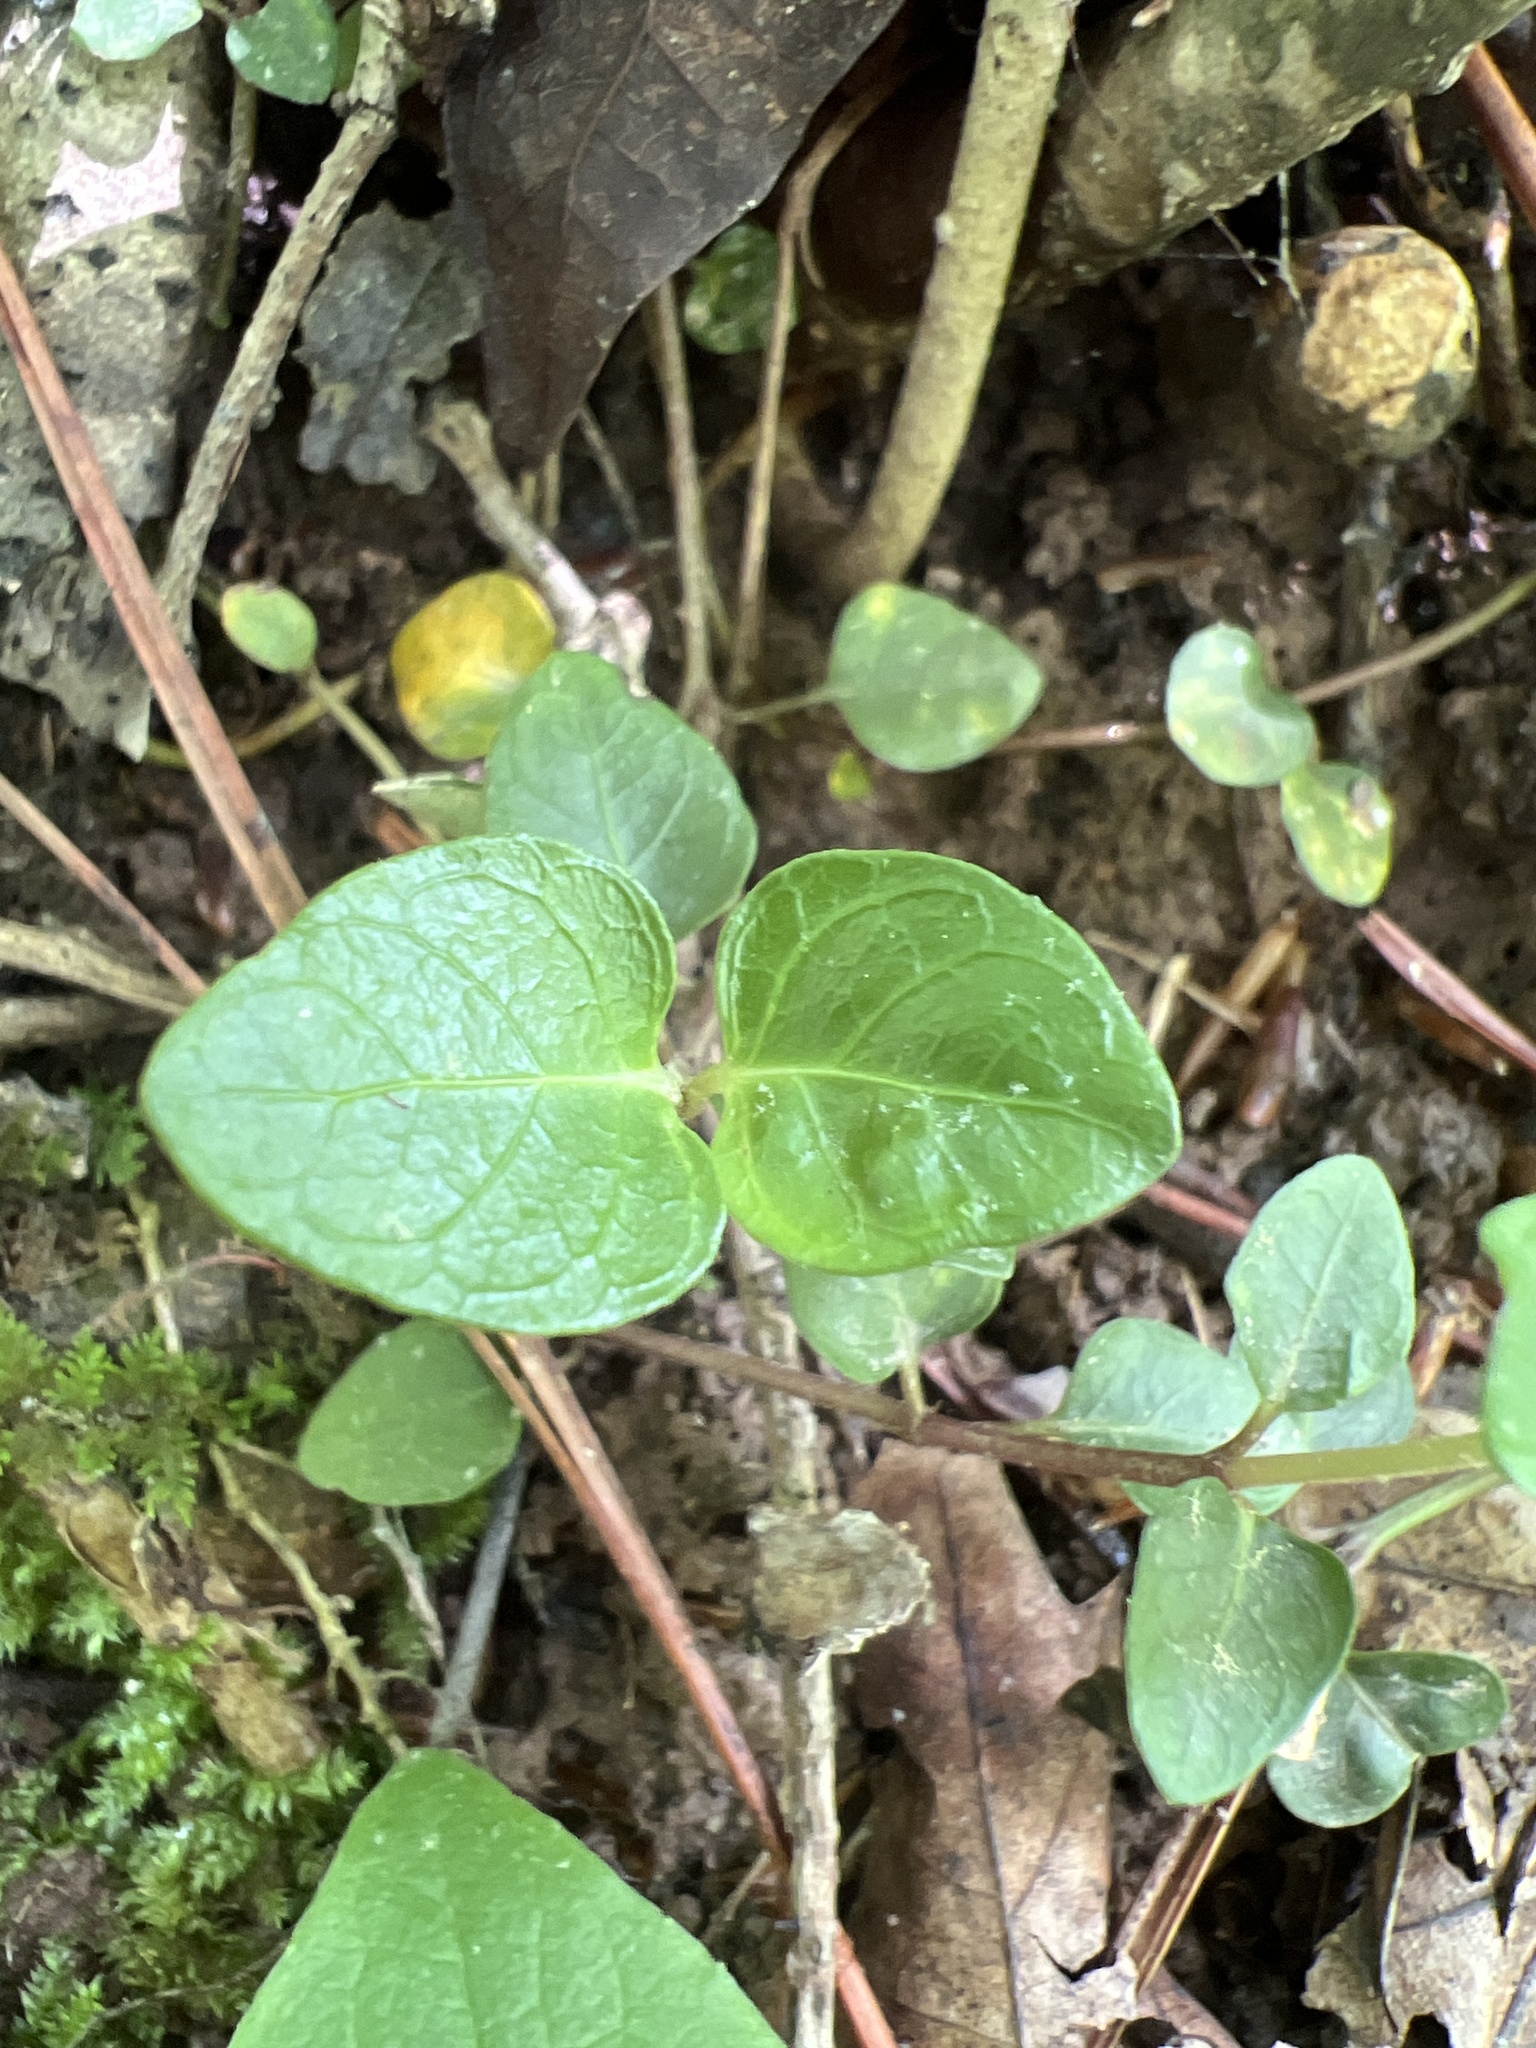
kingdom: Plantae
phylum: Tracheophyta
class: Magnoliopsida
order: Gentianales
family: Rubiaceae
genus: Mitchella
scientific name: Mitchella repens
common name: Partridge-berry
